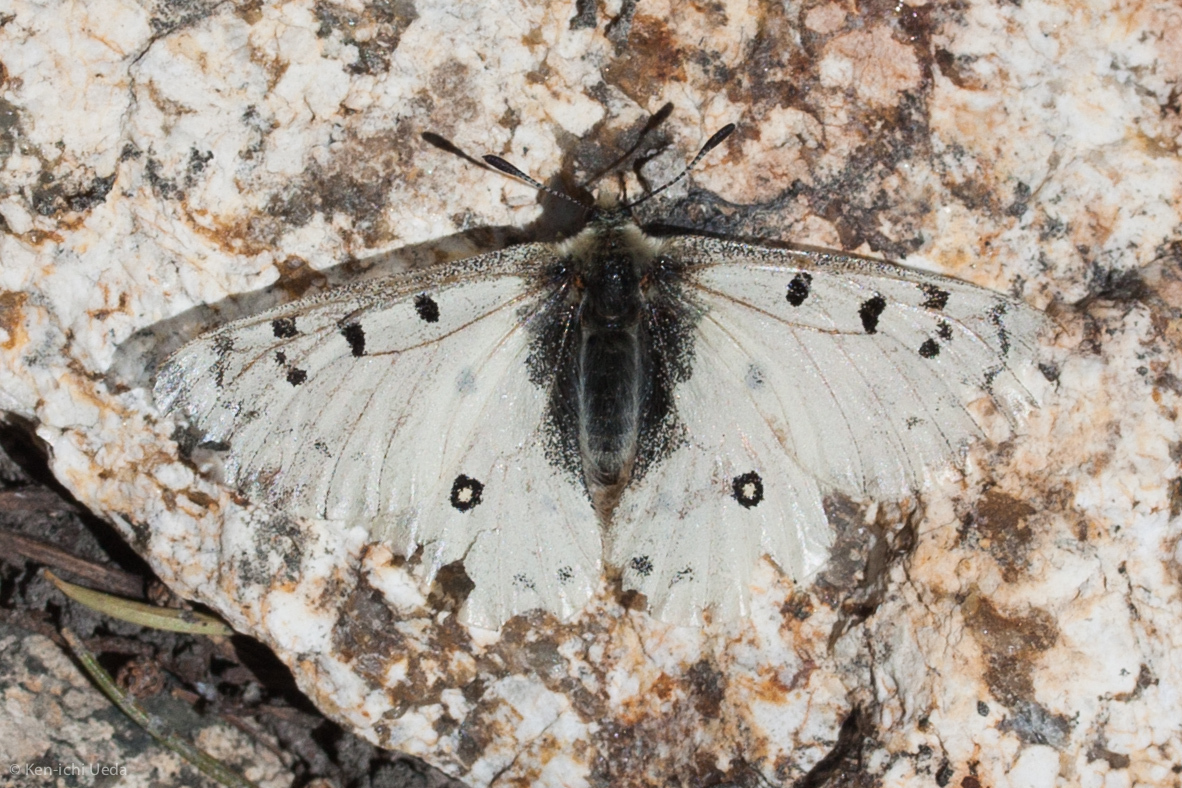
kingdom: Animalia
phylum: Arthropoda
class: Insecta
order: Lepidoptera
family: Papilionidae
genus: Parnassius
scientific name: Parnassius smintheus
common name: Mountain parnassian
